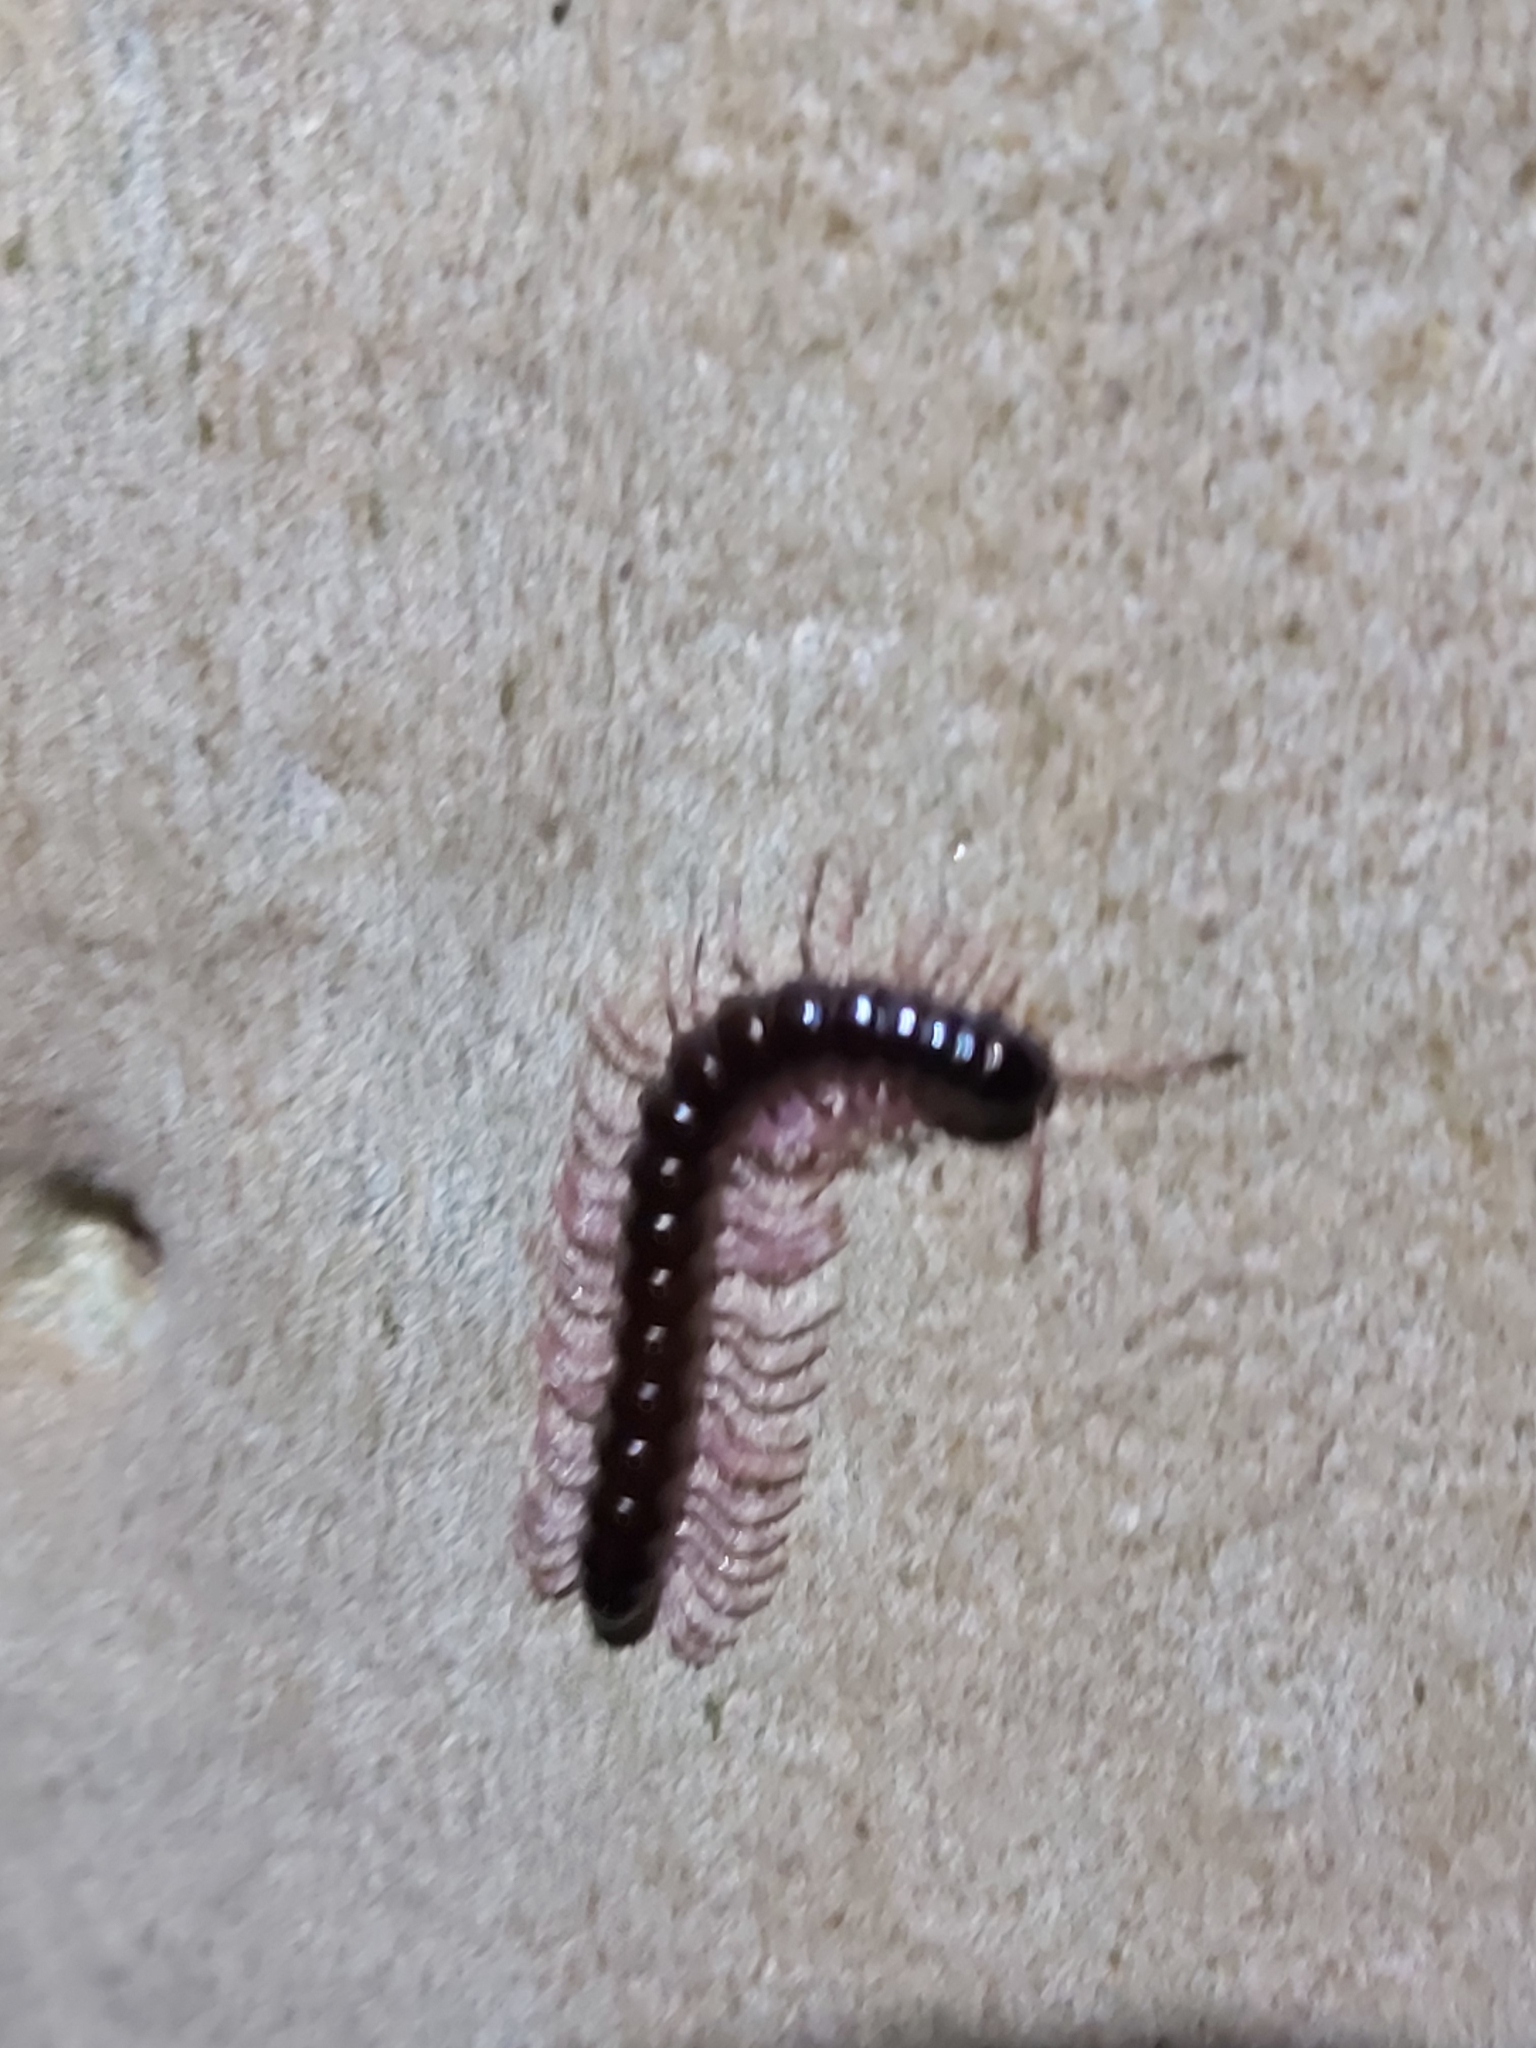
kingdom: Animalia
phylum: Arthropoda
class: Diplopoda
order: Polydesmida
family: Paradoxosomatidae
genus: Heterocladosoma
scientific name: Heterocladosoma
